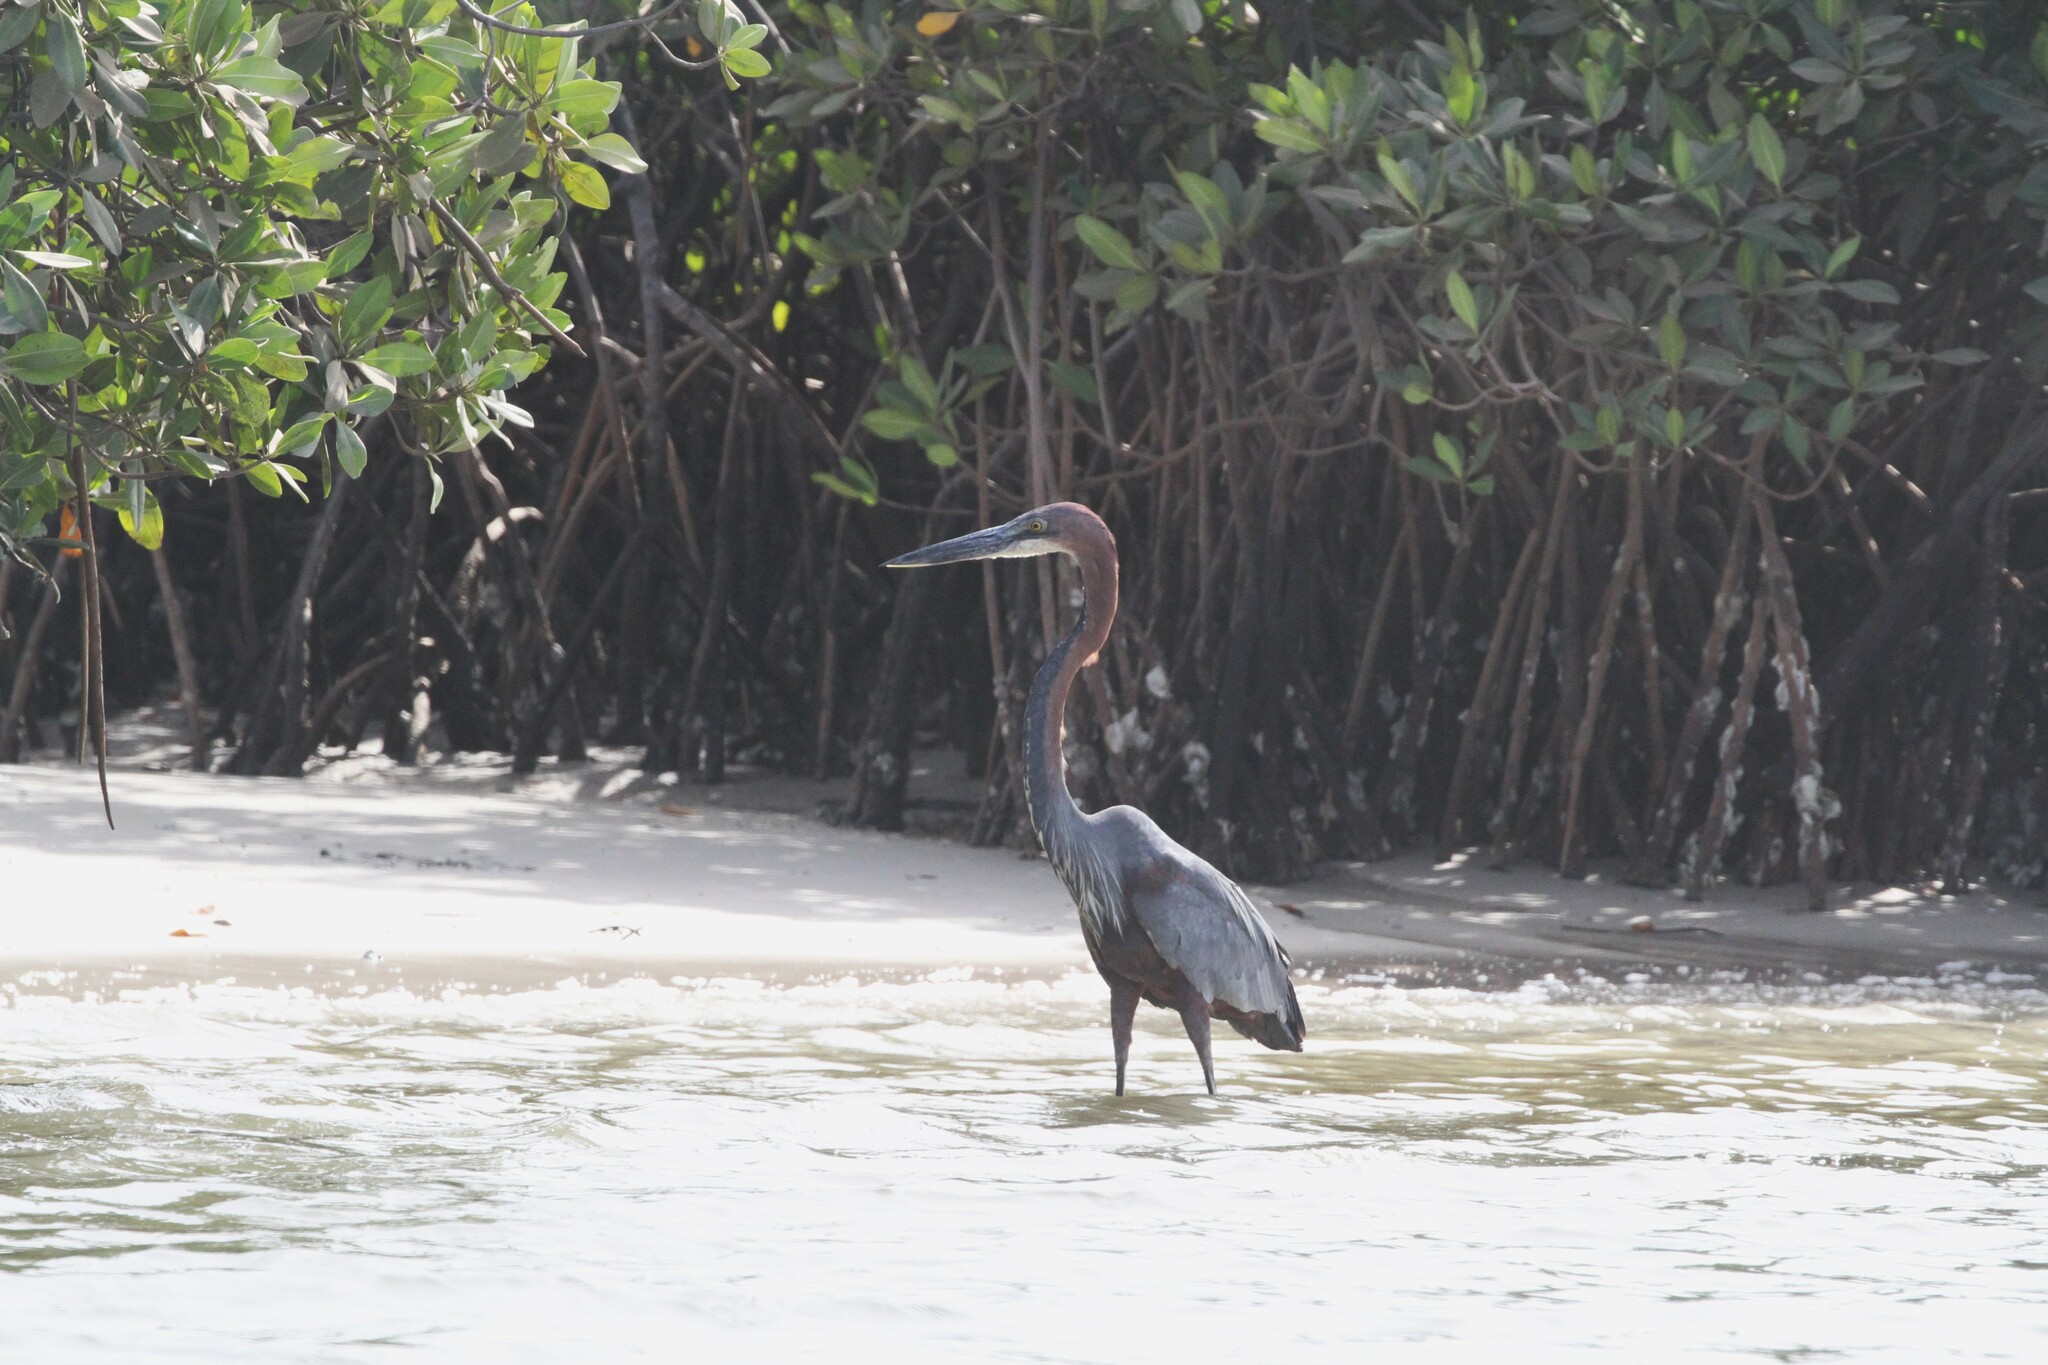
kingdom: Animalia
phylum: Chordata
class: Aves
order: Pelecaniformes
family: Ardeidae
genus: Ardea
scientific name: Ardea goliath
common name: Goliath heron
